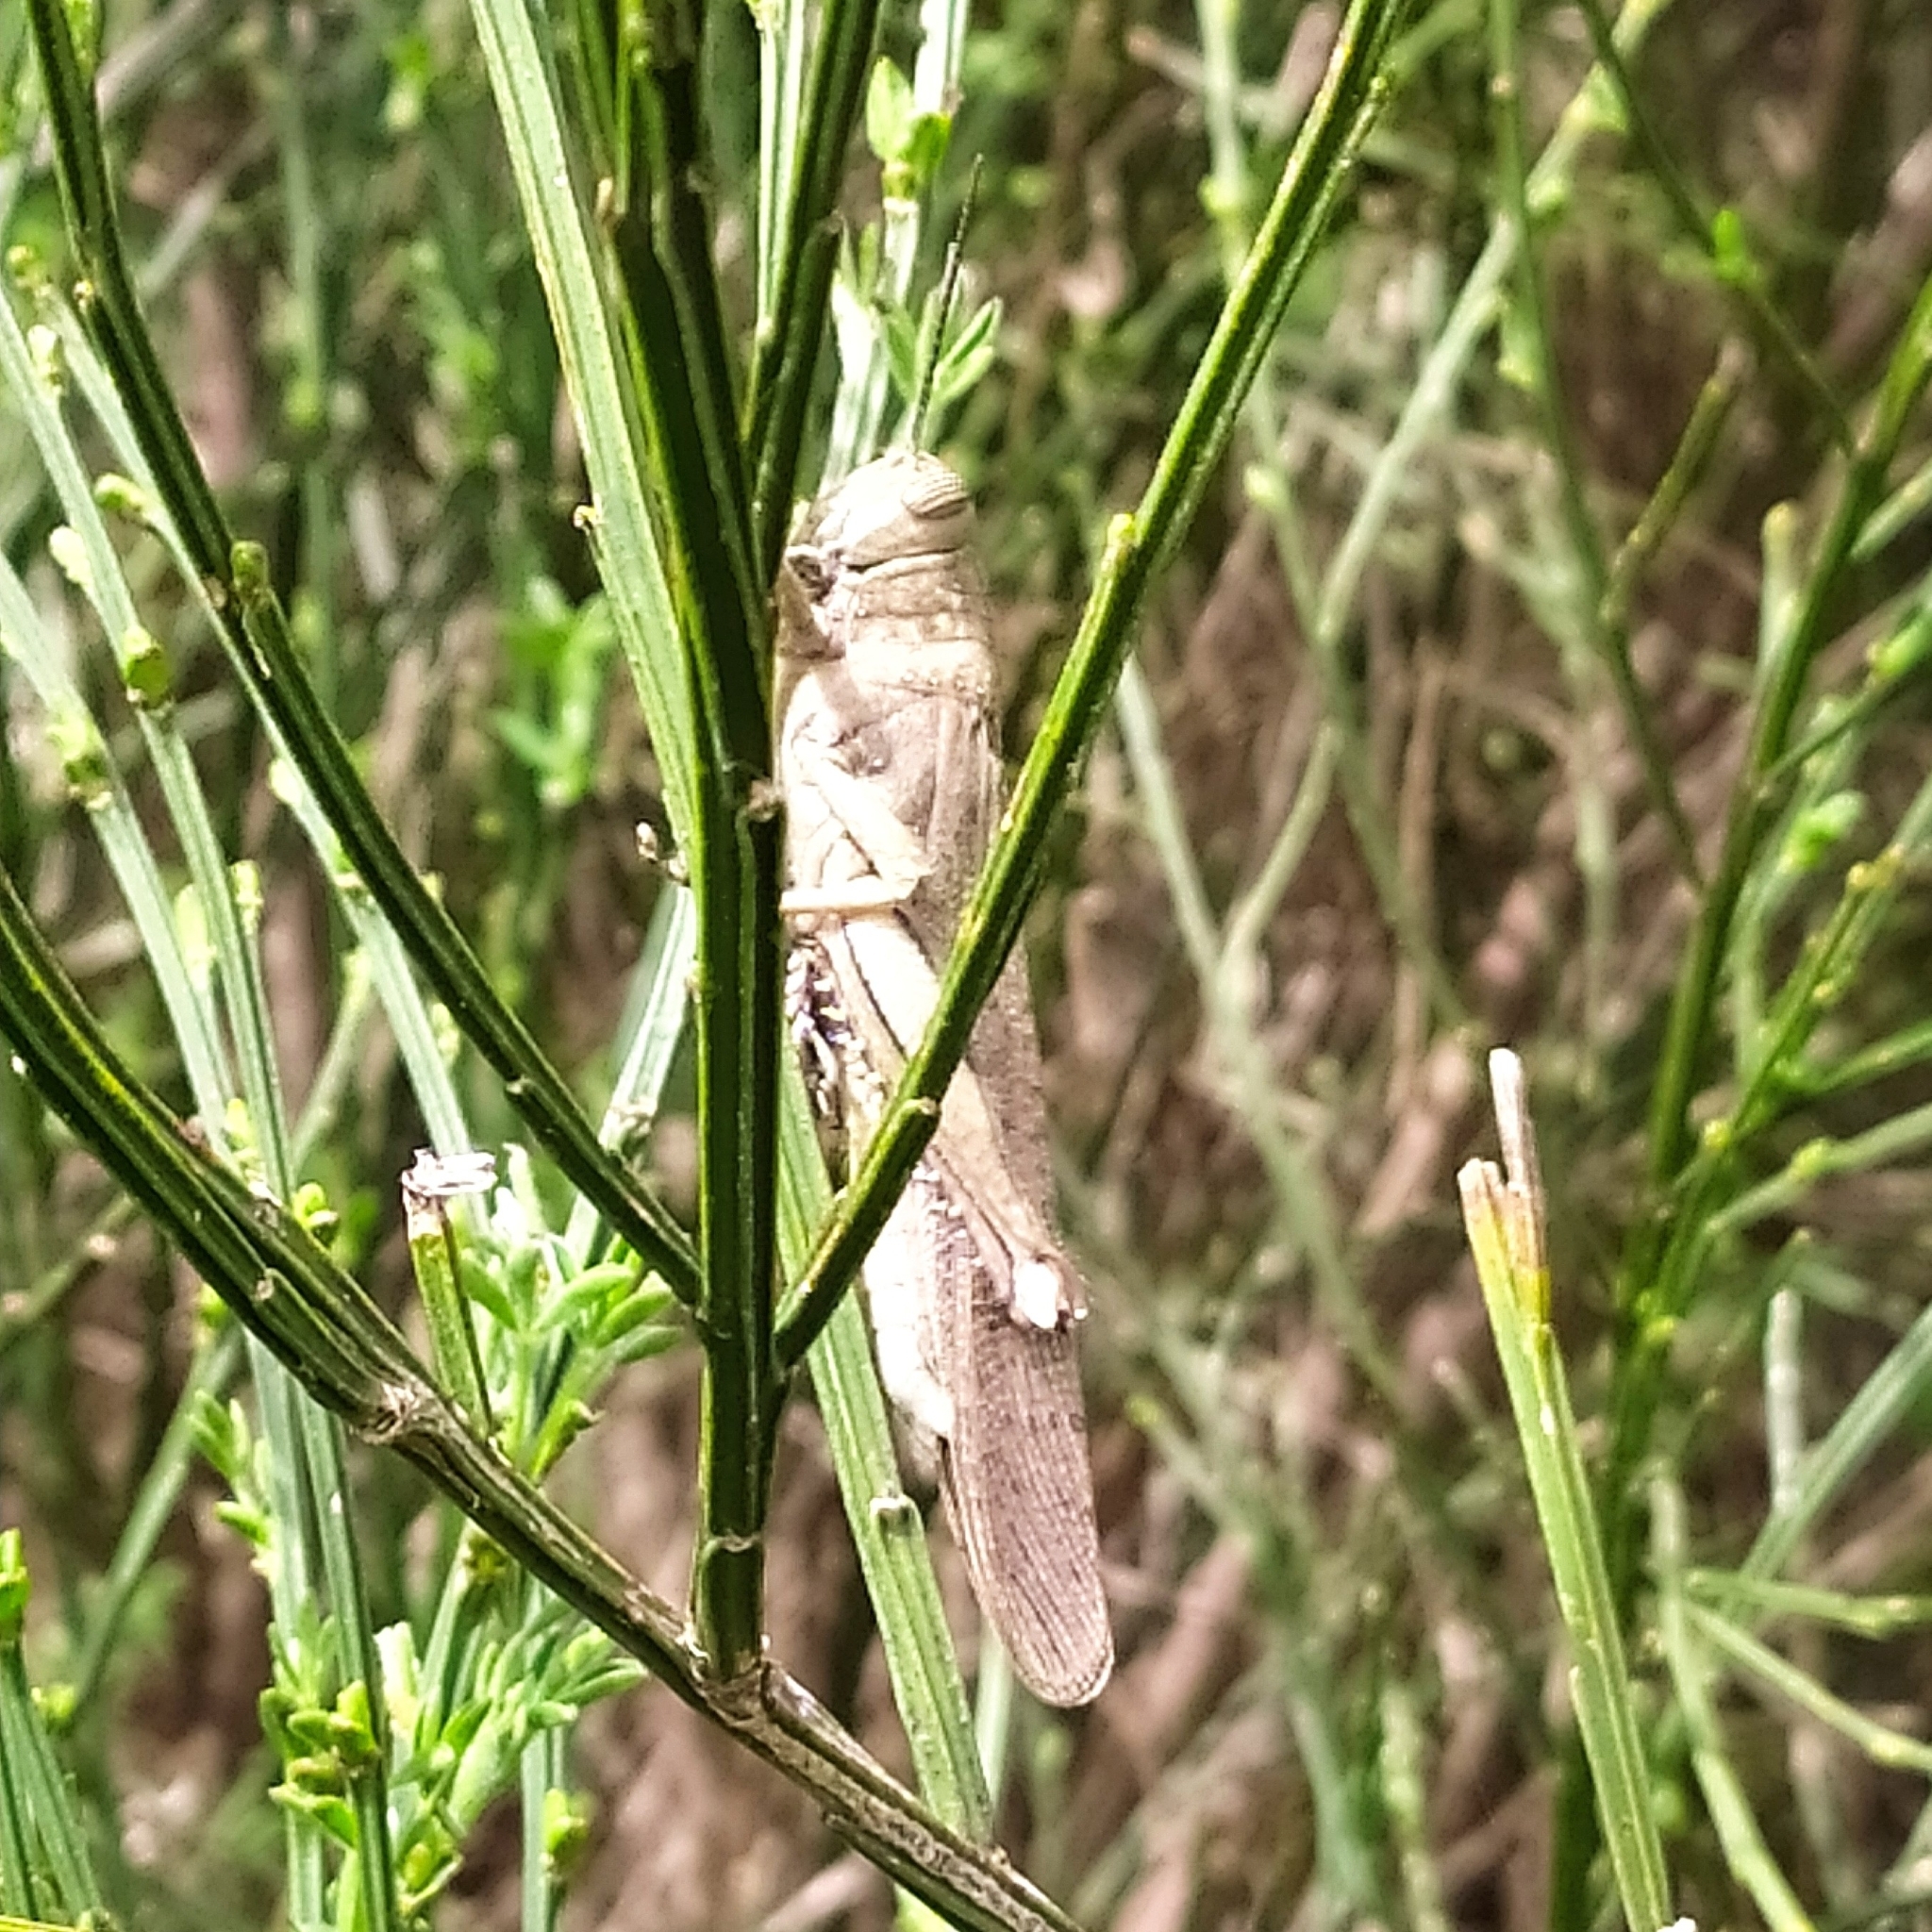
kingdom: Animalia
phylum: Arthropoda
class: Insecta
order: Orthoptera
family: Acrididae
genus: Anacridium
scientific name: Anacridium aegyptium
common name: Egyptian grasshopper
